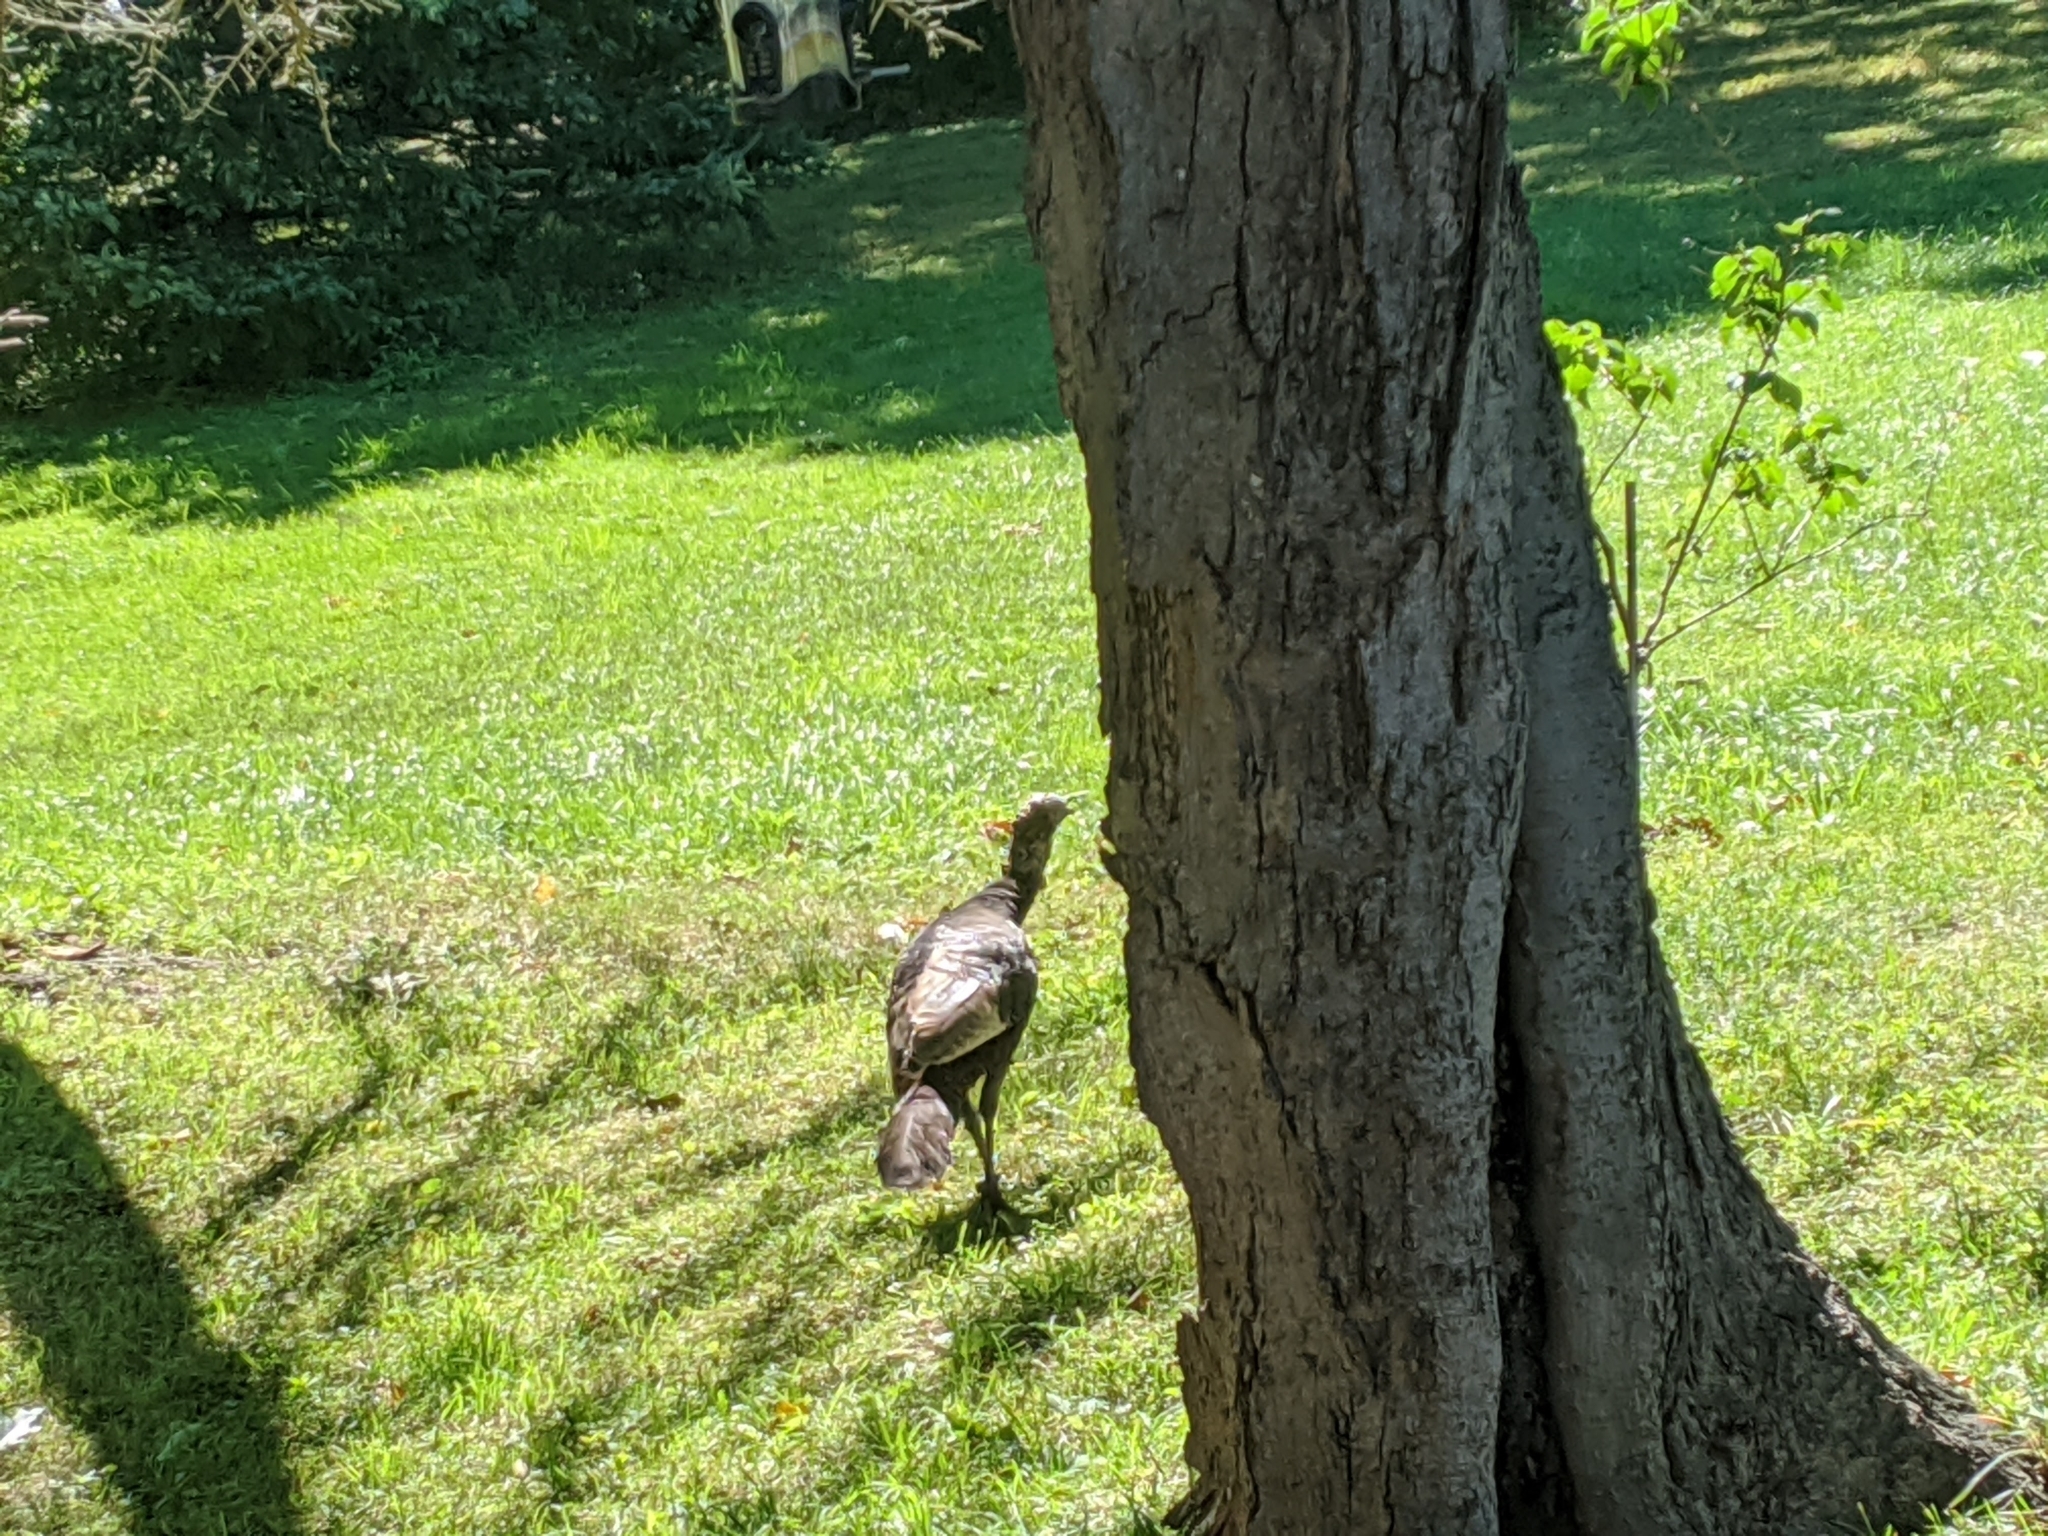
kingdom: Animalia
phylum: Chordata
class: Aves
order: Galliformes
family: Phasianidae
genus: Meleagris
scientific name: Meleagris gallopavo
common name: Wild turkey
